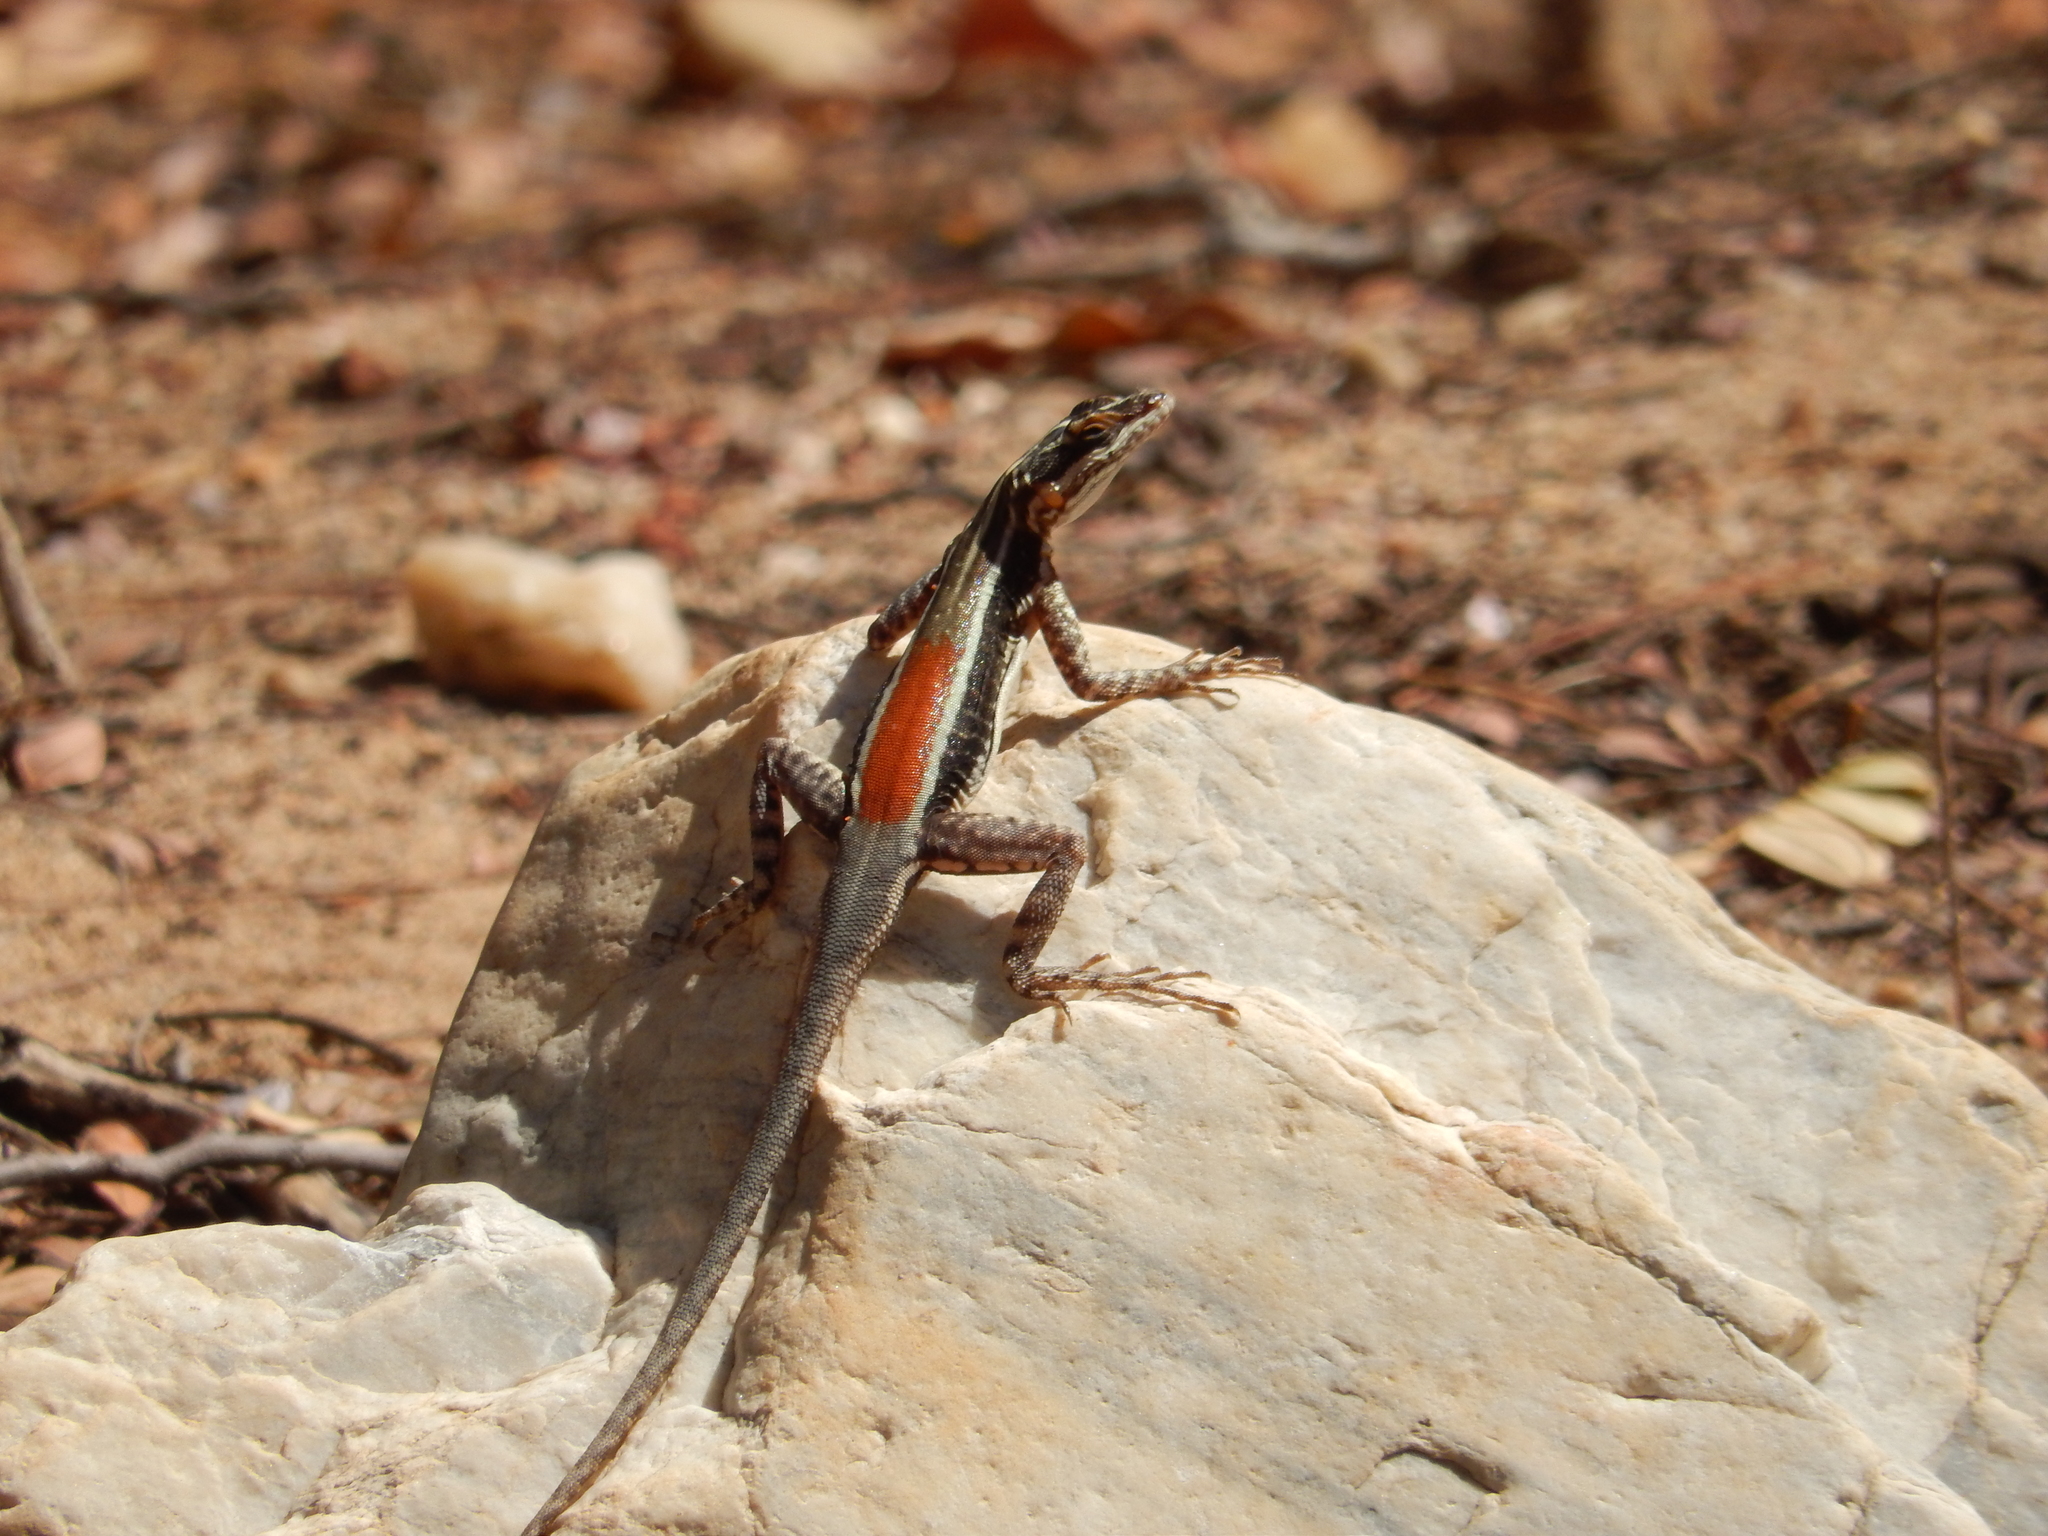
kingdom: Animalia
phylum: Chordata
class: Squamata
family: Tropiduridae
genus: Tropidurus
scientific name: Tropidurus helenae
